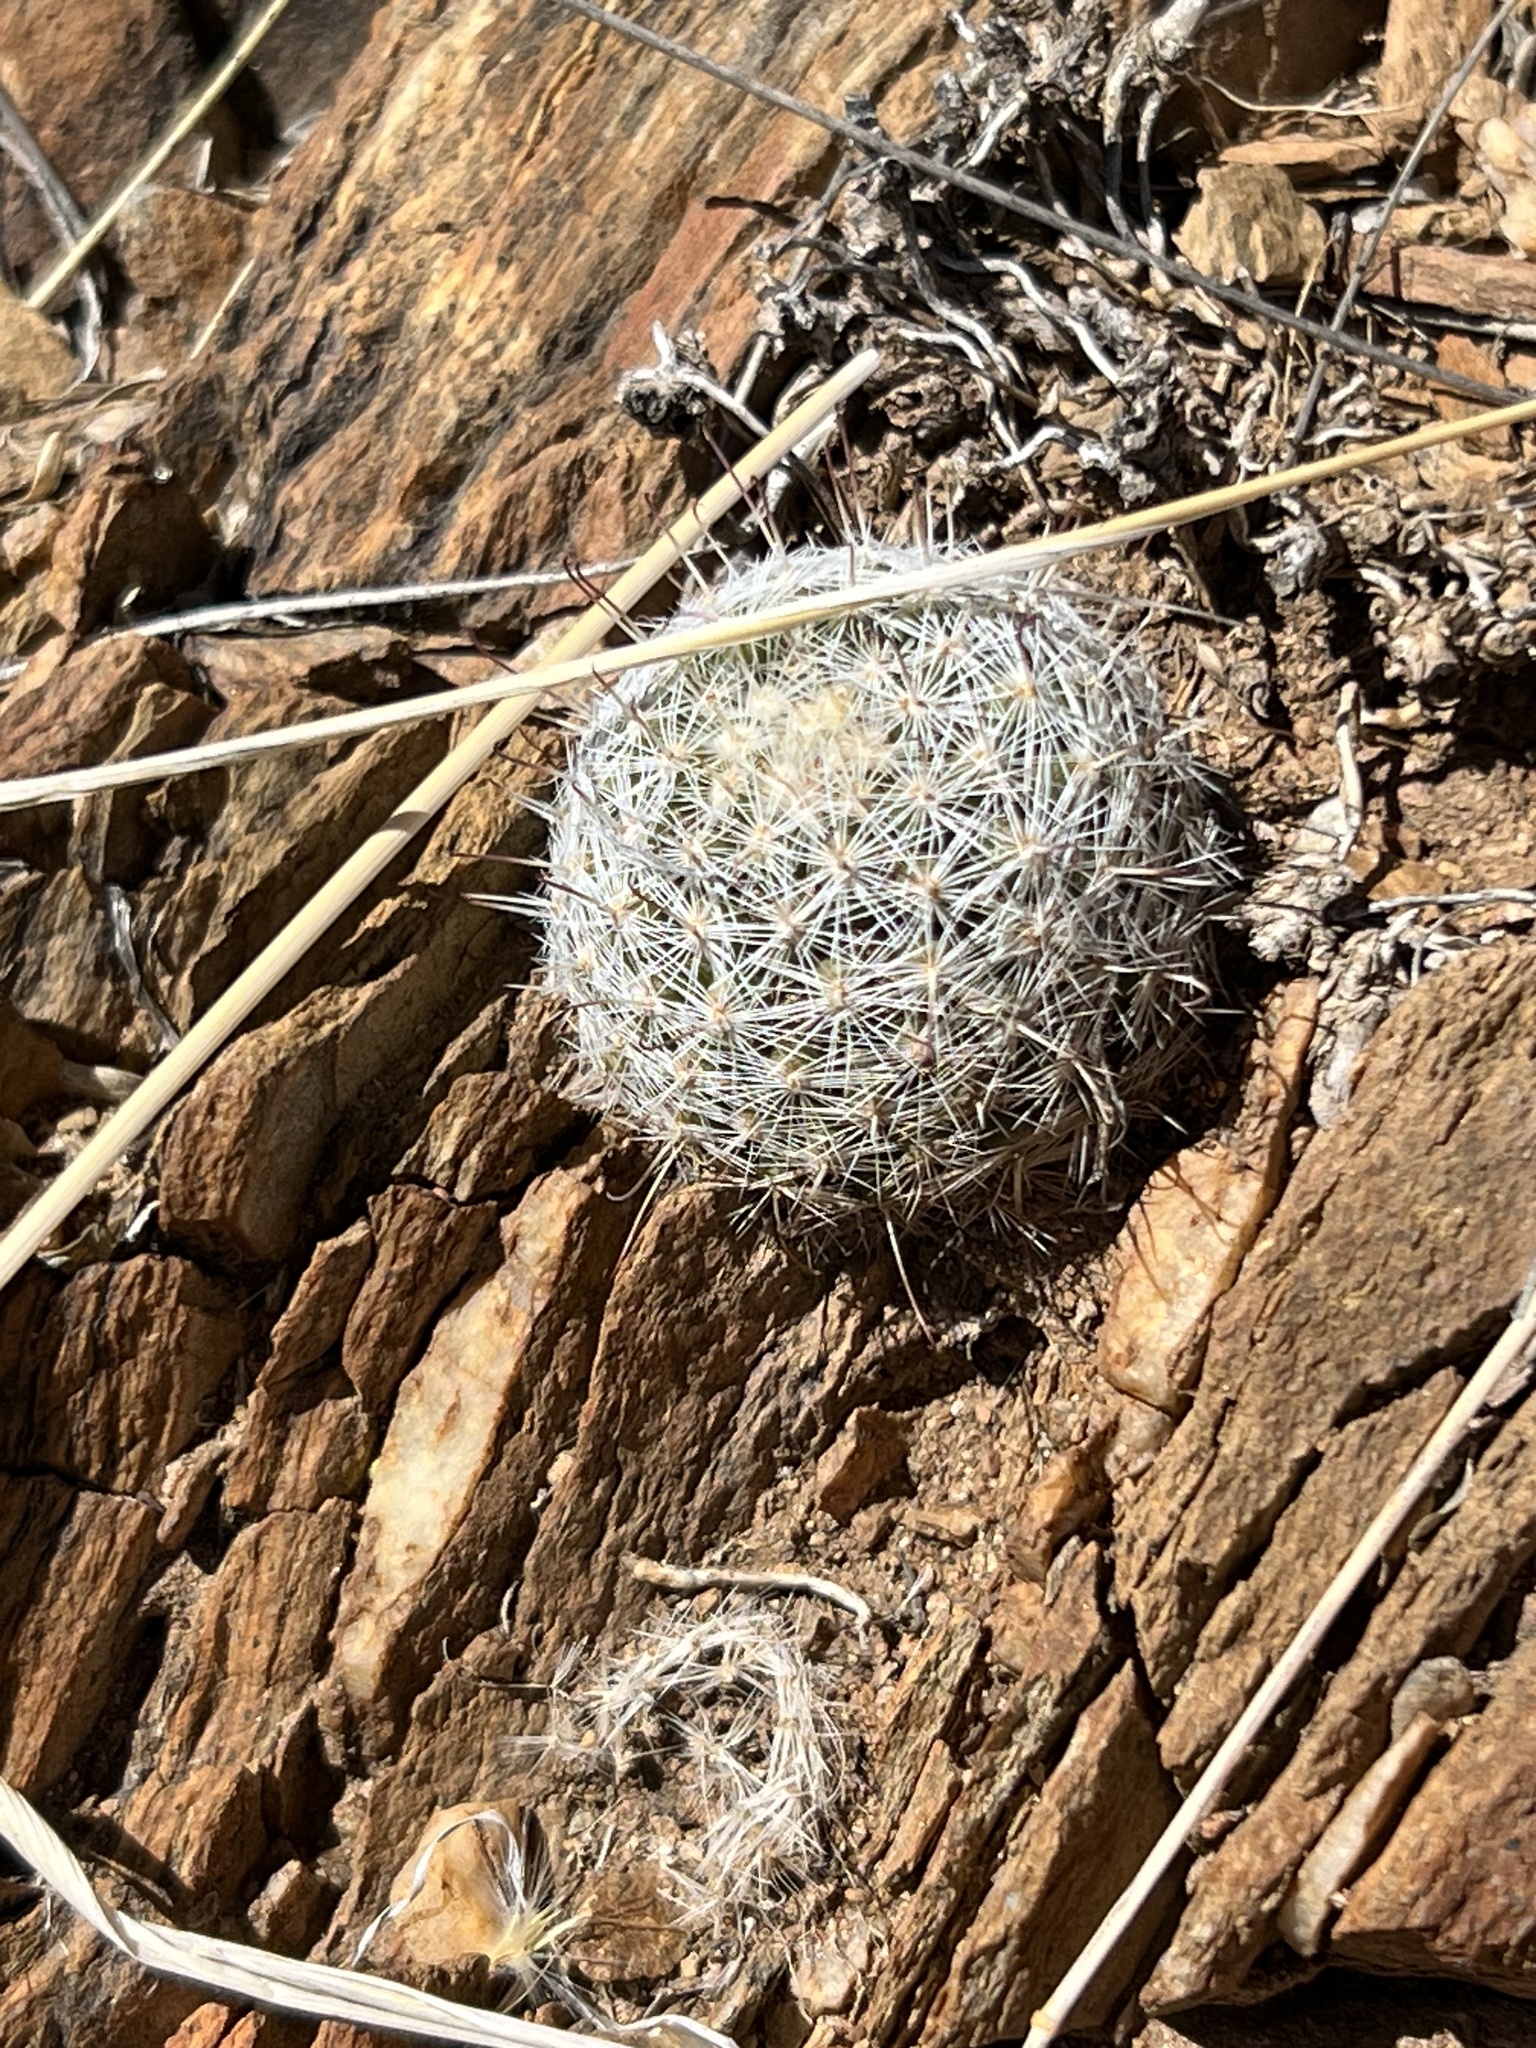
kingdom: Plantae
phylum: Tracheophyta
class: Magnoliopsida
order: Caryophyllales
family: Cactaceae
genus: Cochemiea
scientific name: Cochemiea grahamii
